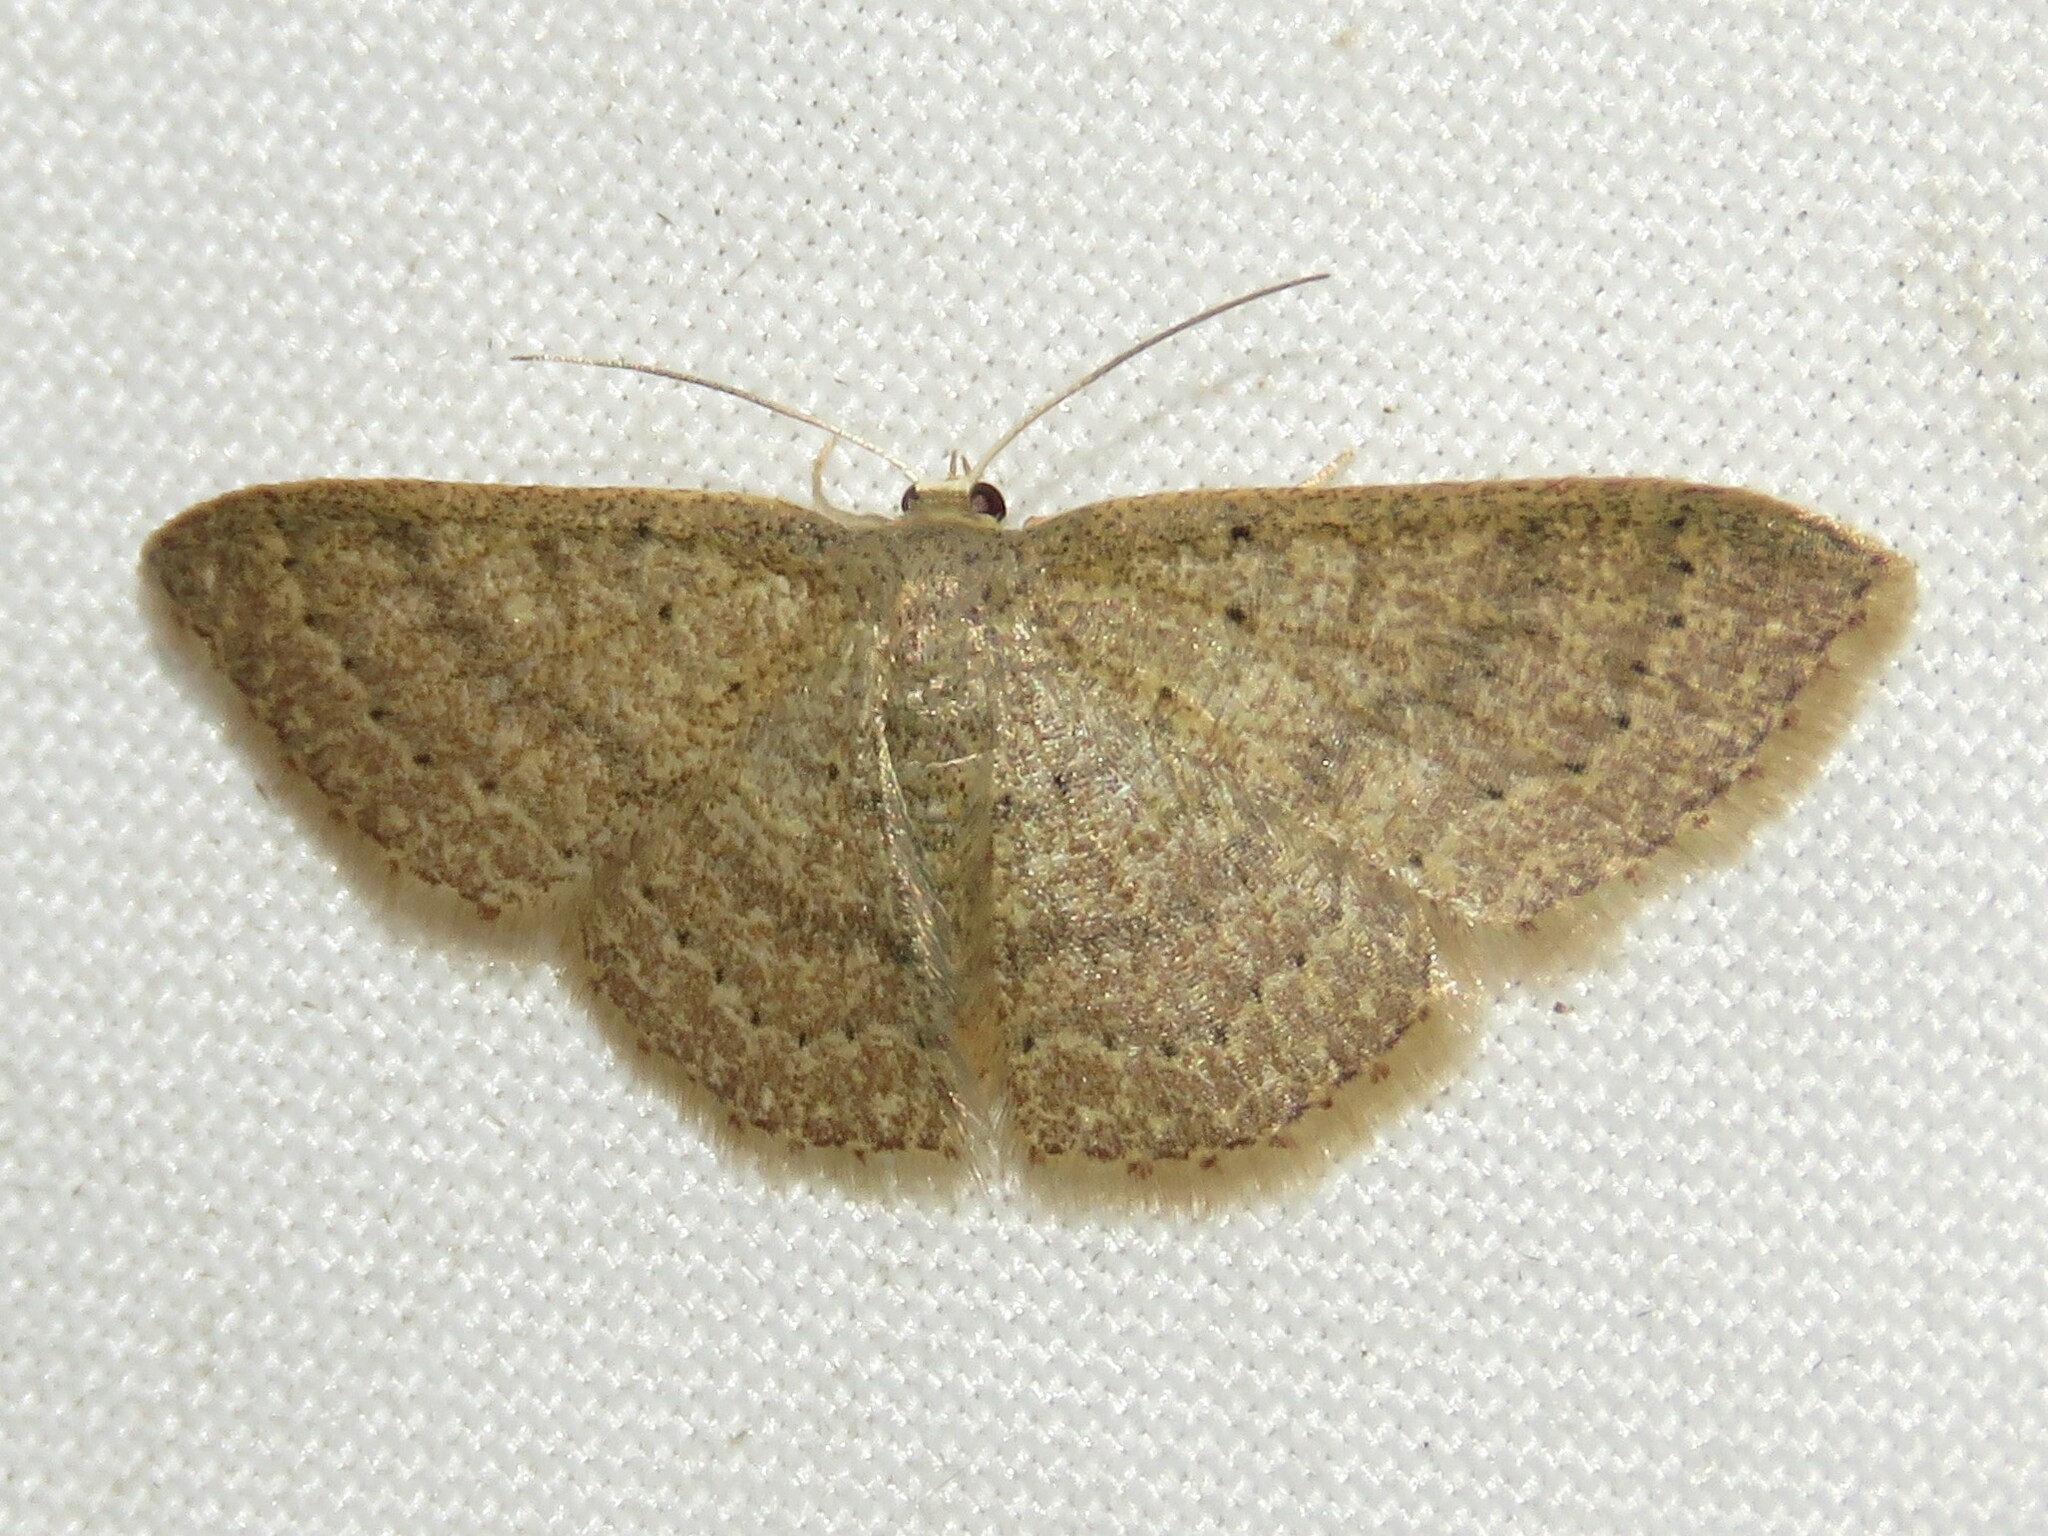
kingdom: Animalia
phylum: Arthropoda
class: Insecta
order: Lepidoptera
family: Geometridae
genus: Pleuroprucha
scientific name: Pleuroprucha insulsaria
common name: Common tan wave
